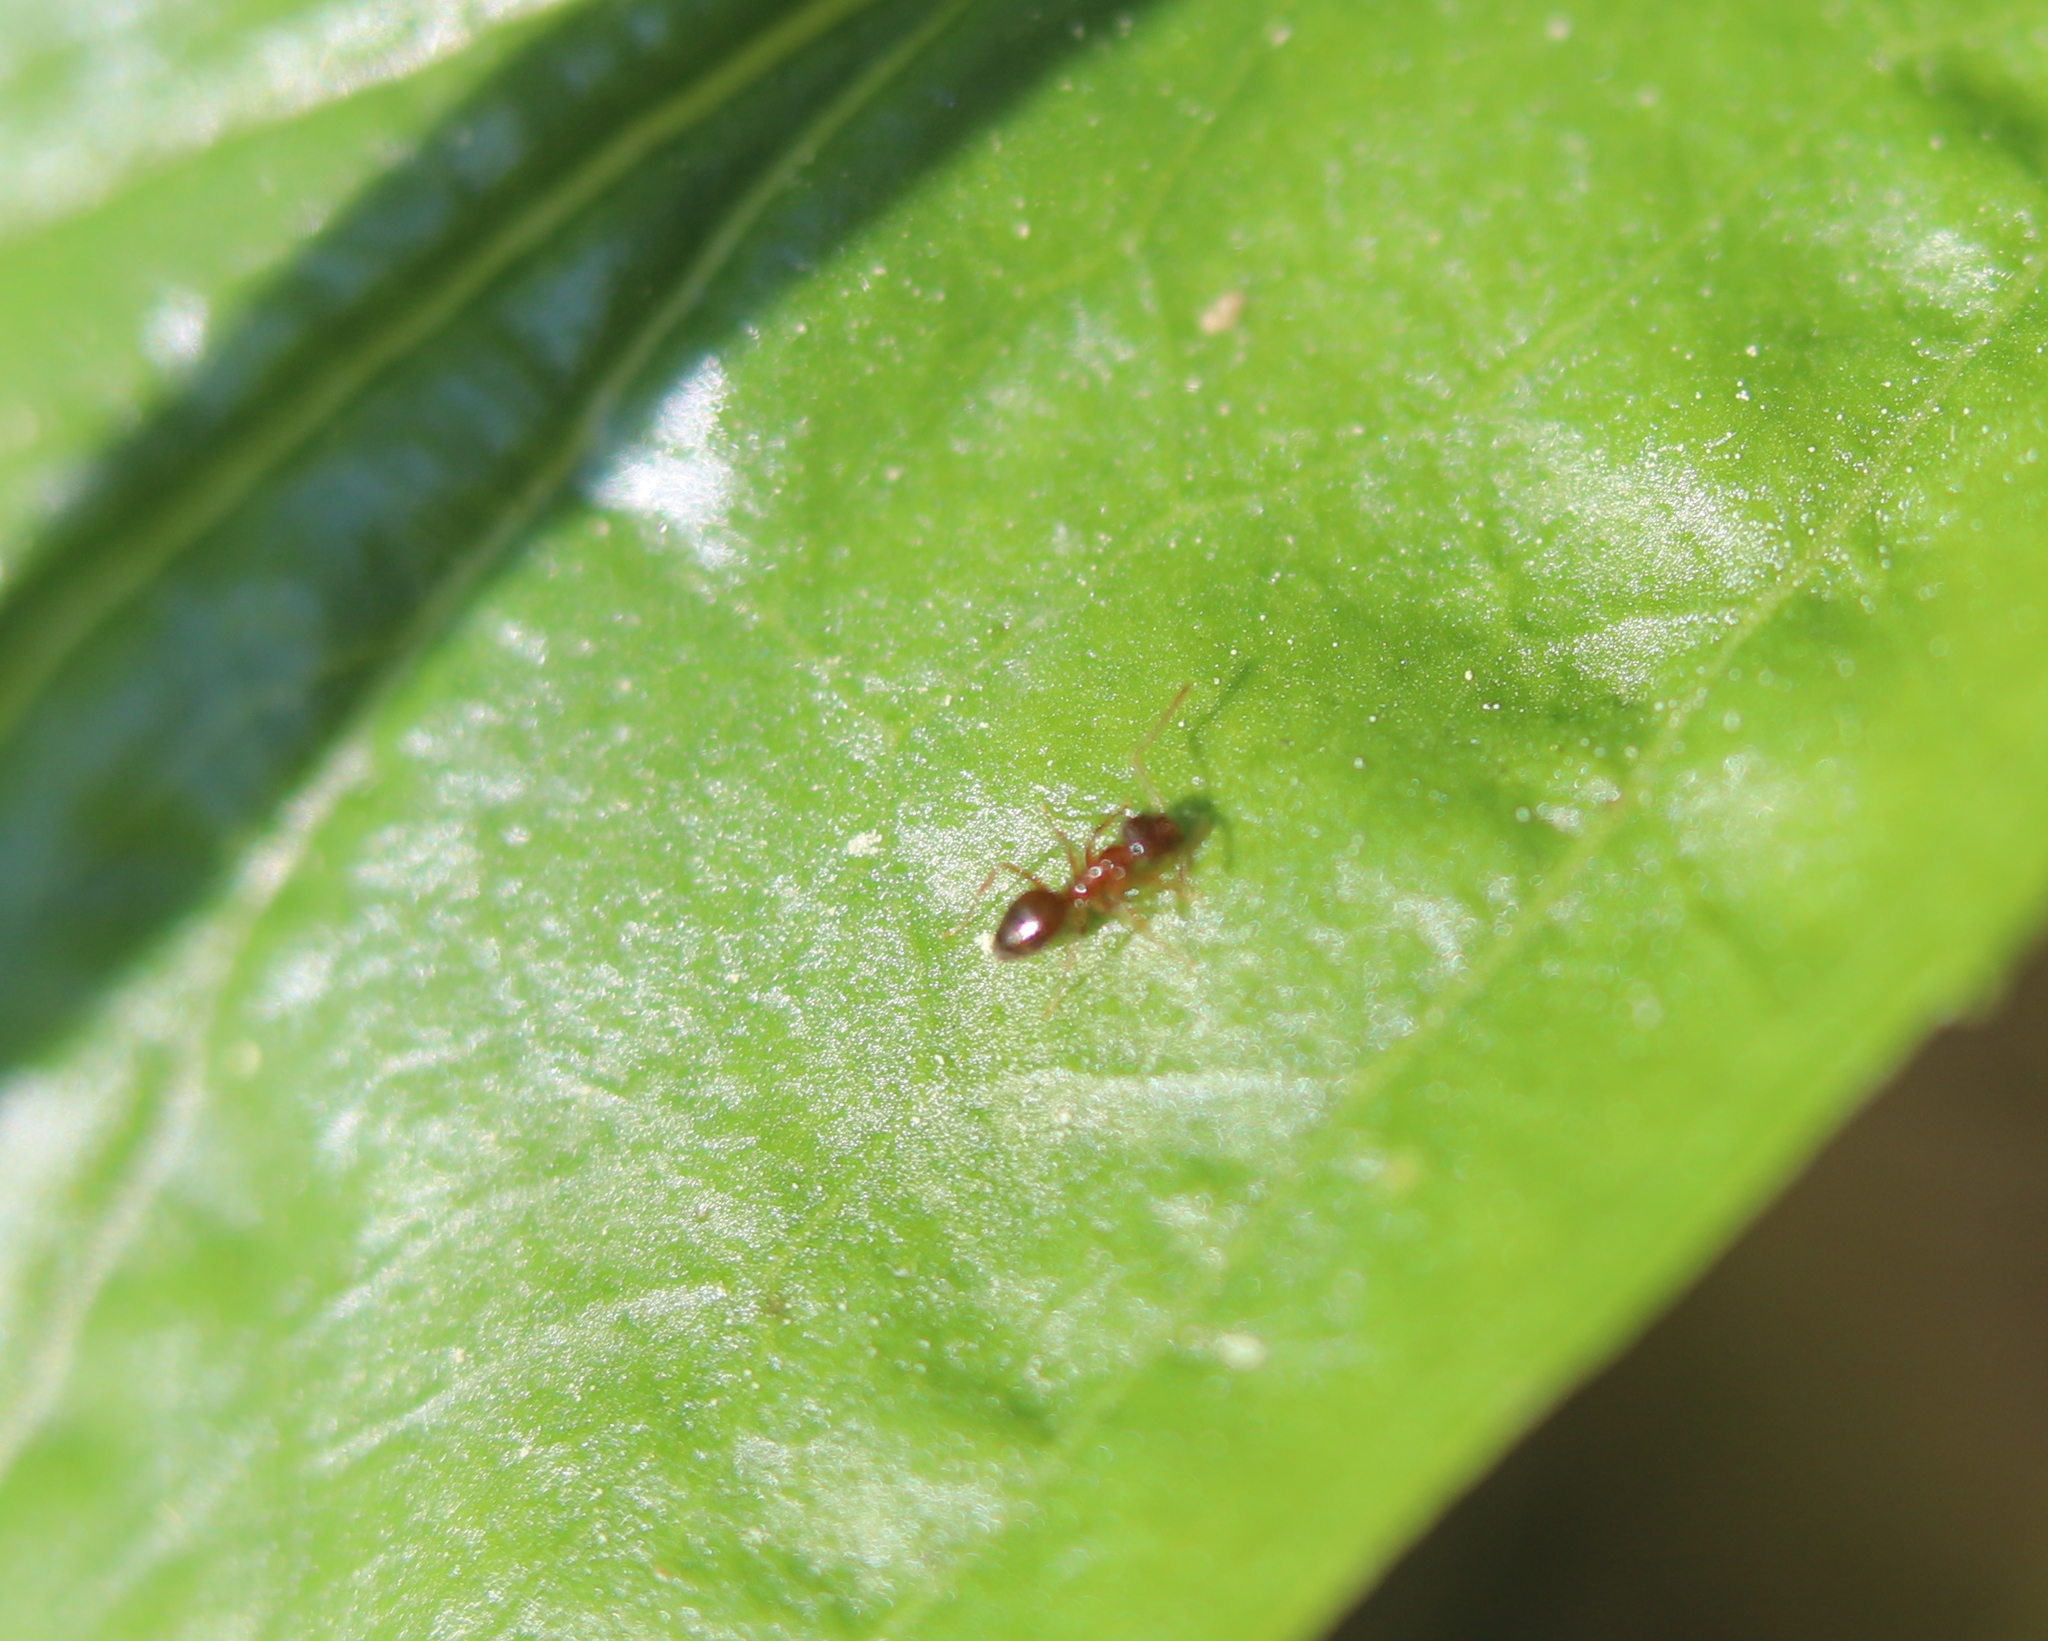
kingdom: Animalia
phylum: Arthropoda
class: Insecta
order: Hymenoptera
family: Formicidae
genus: Paratrechina
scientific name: Paratrechina flavipes
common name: Eastern asian formicine ant
